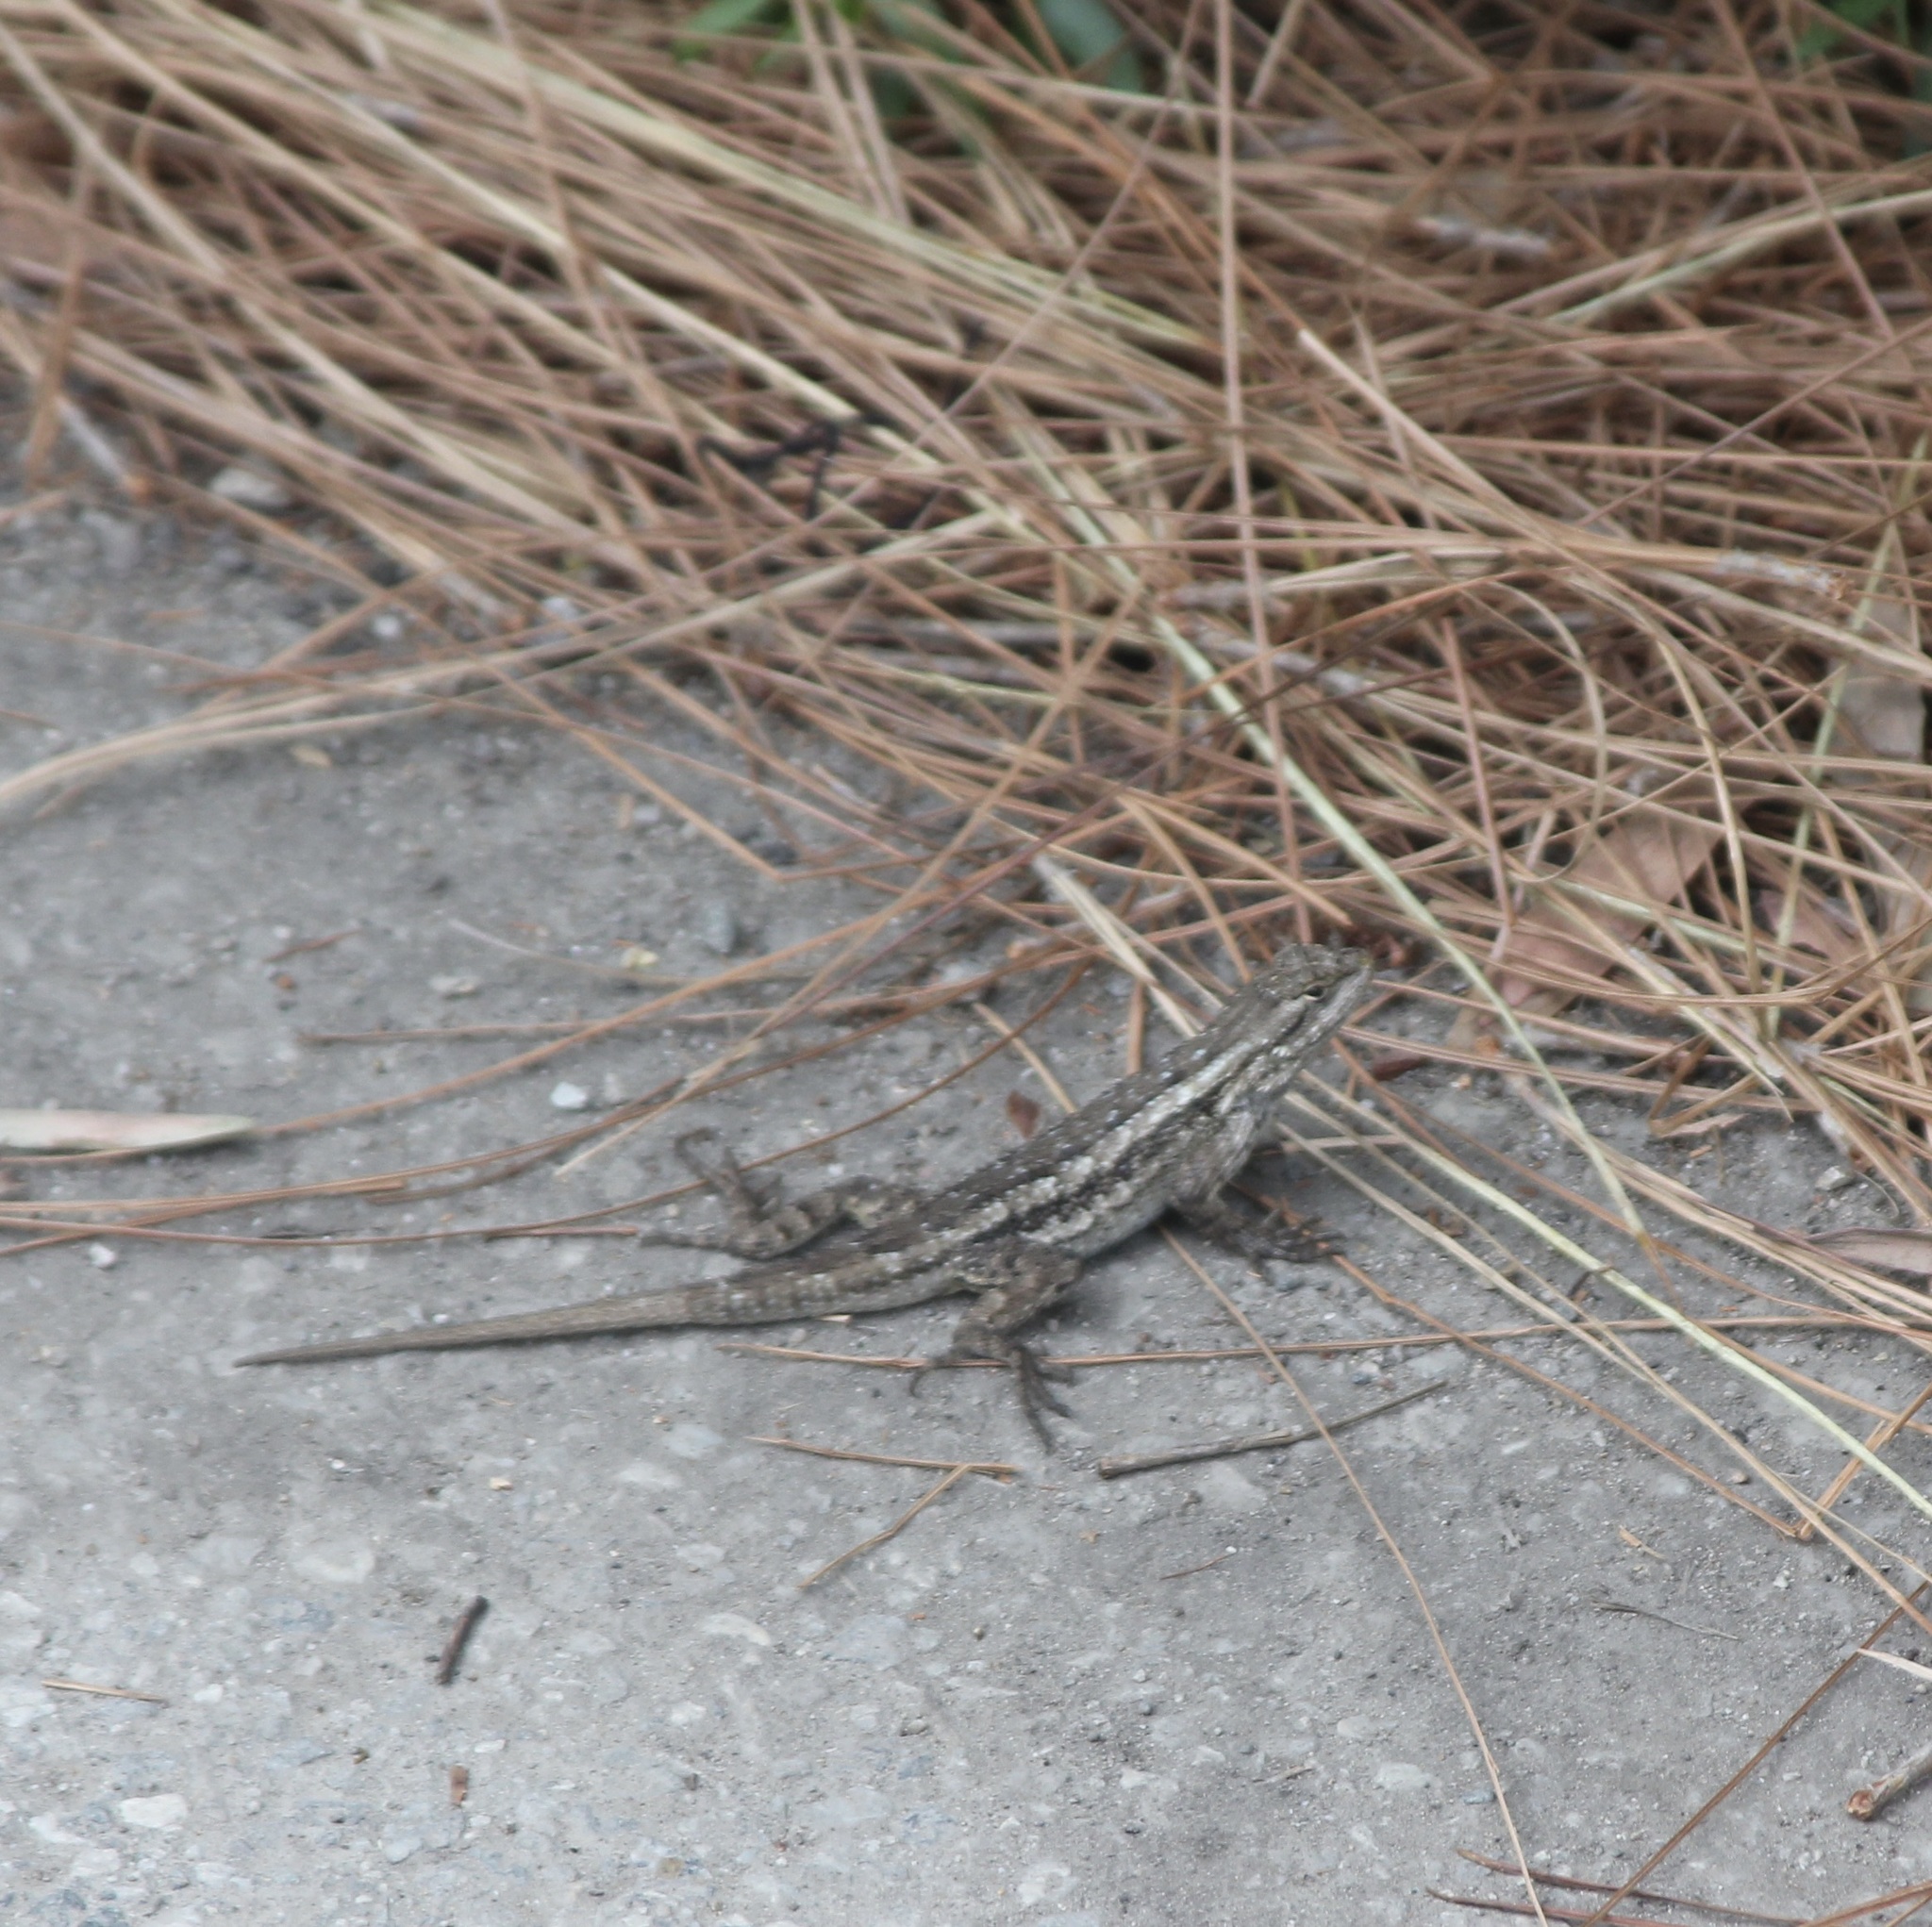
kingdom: Animalia
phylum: Chordata
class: Squamata
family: Phrynosomatidae
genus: Sceloporus
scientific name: Sceloporus occidentalis
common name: Western fence lizard
